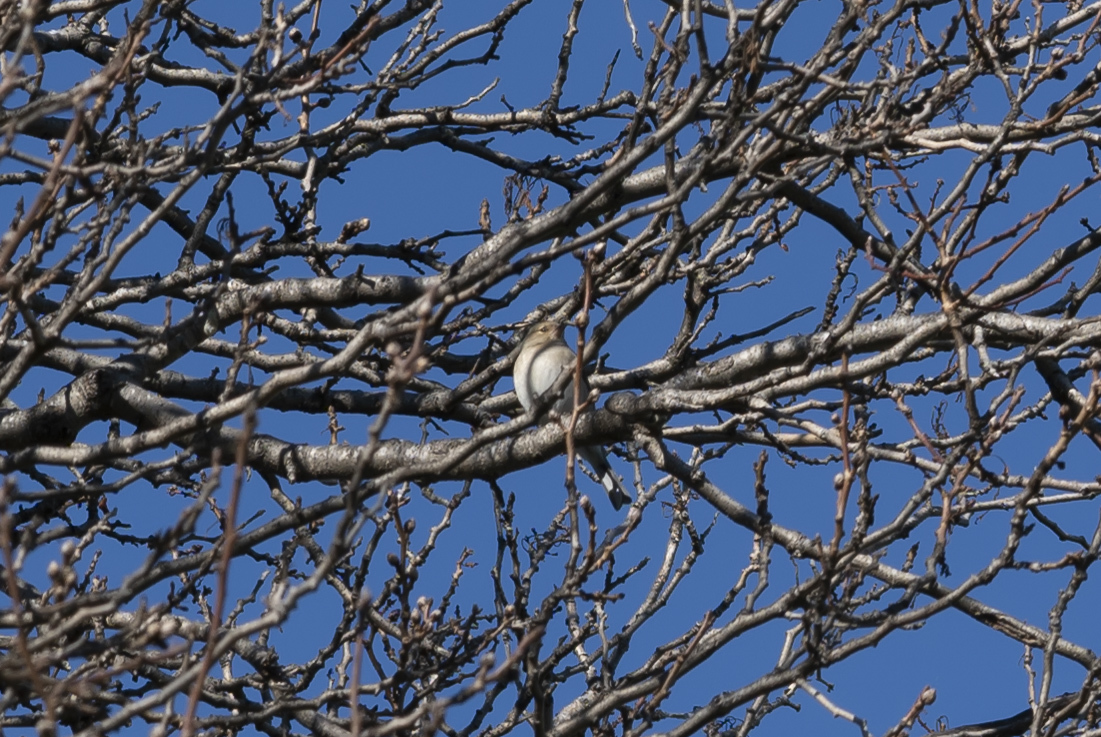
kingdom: Animalia
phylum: Chordata
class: Aves
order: Passeriformes
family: Fringillidae
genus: Fringilla
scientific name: Fringilla coelebs
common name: Common chaffinch
